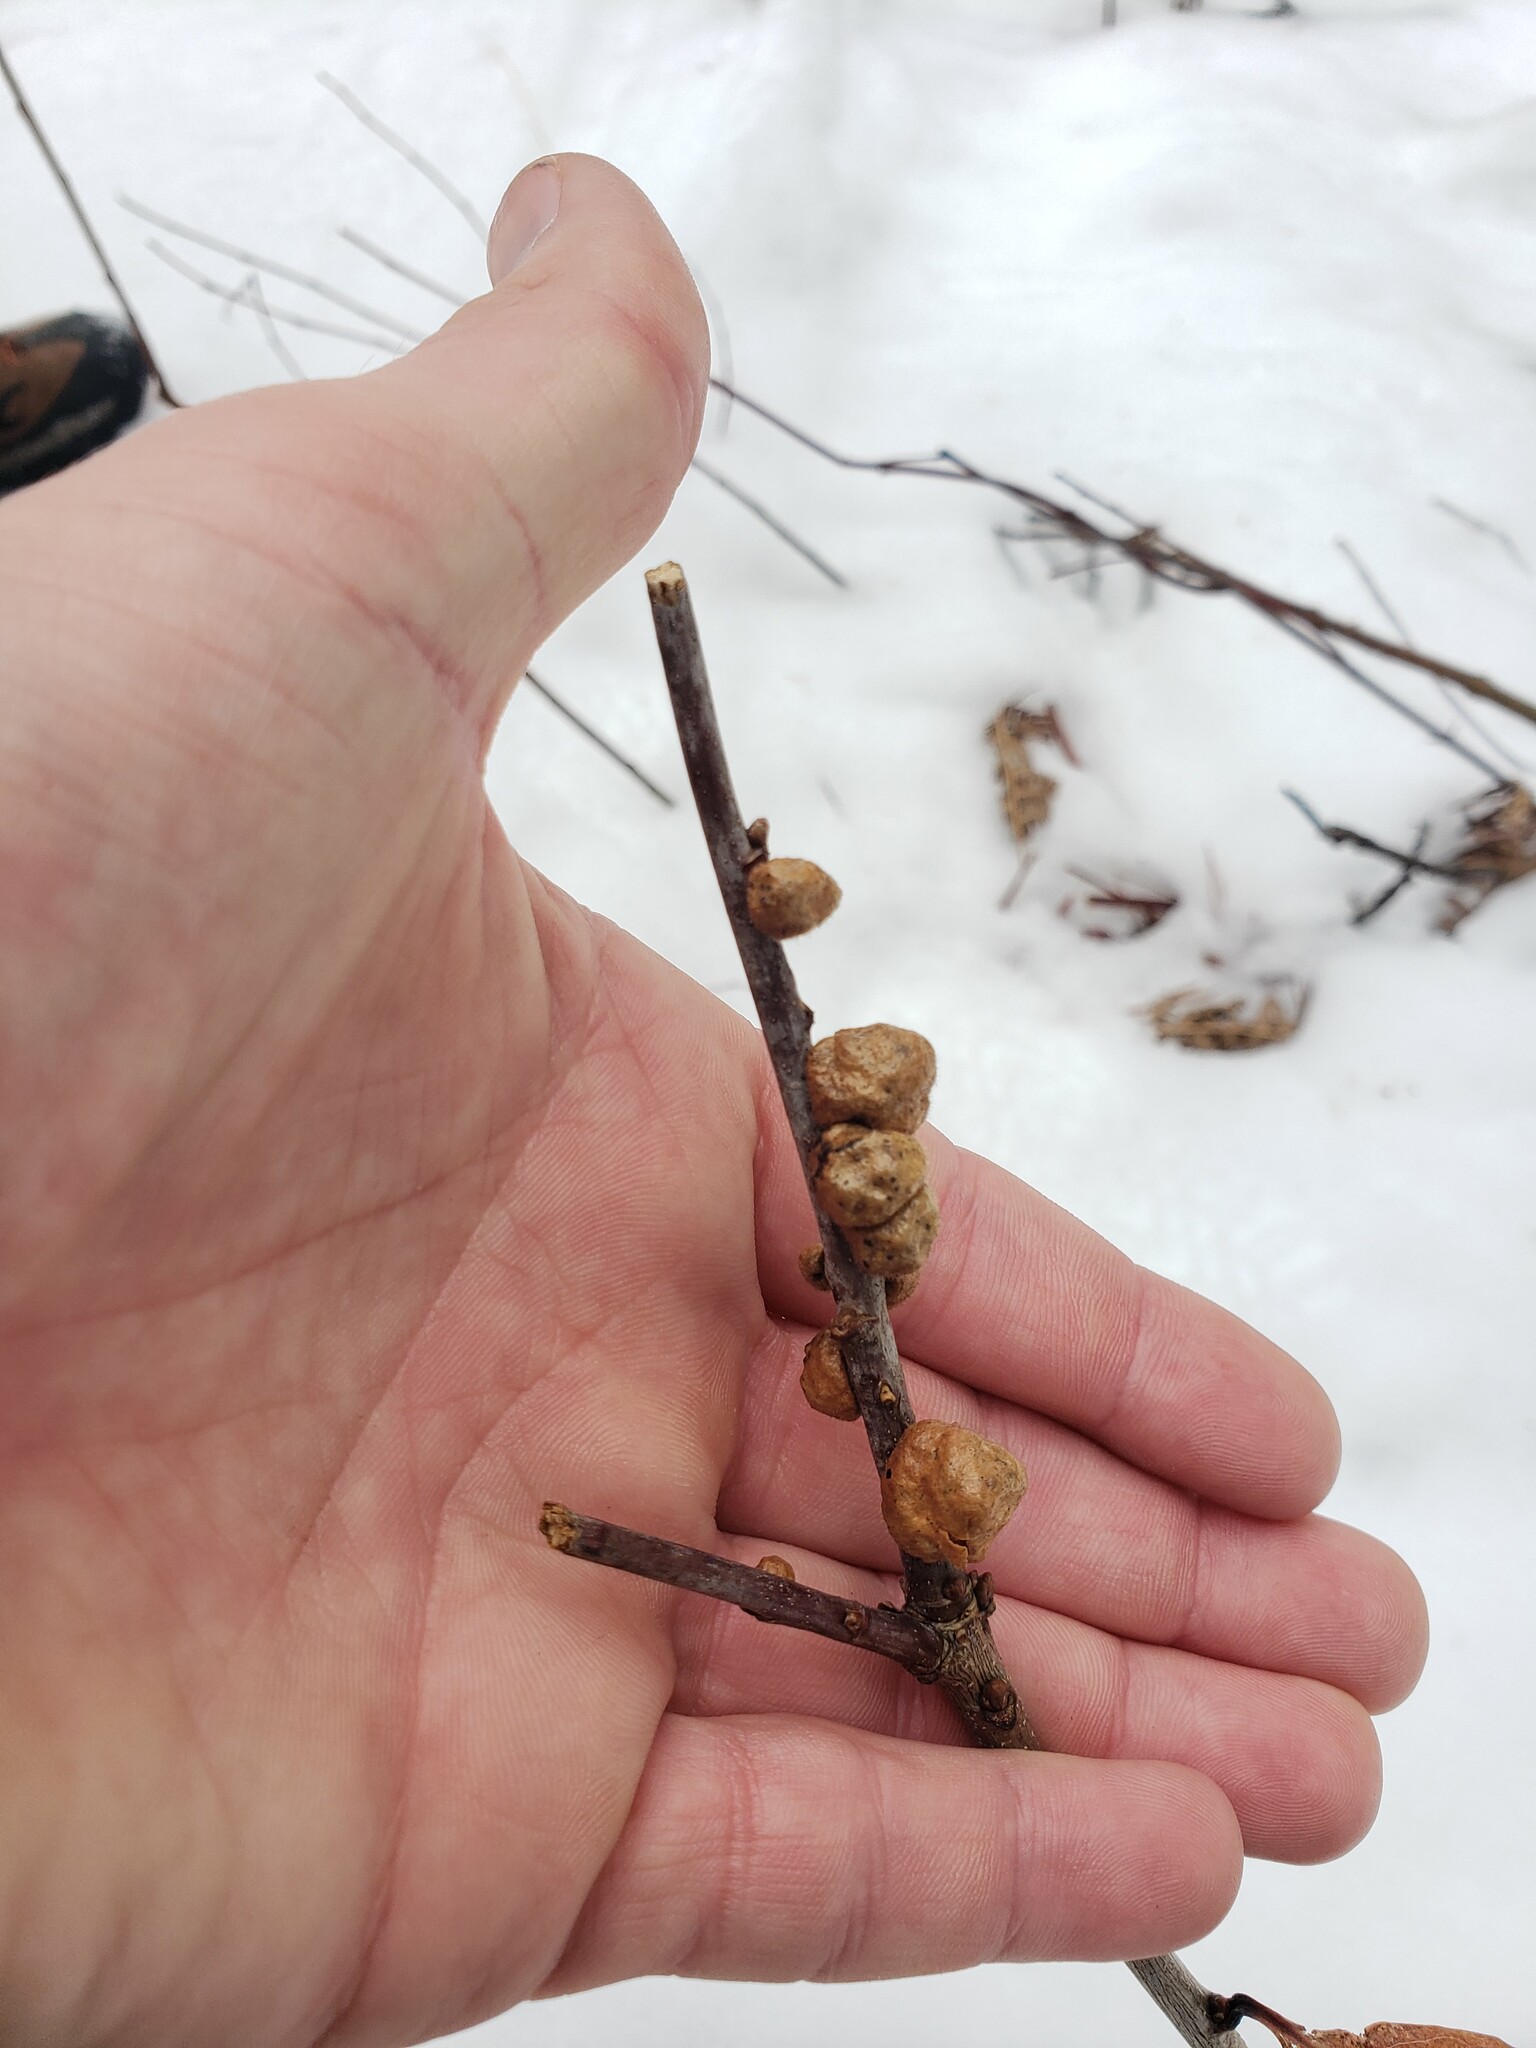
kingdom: Animalia
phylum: Arthropoda
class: Insecta
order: Hymenoptera
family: Cynipidae
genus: Disholcaspis
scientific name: Disholcaspis
